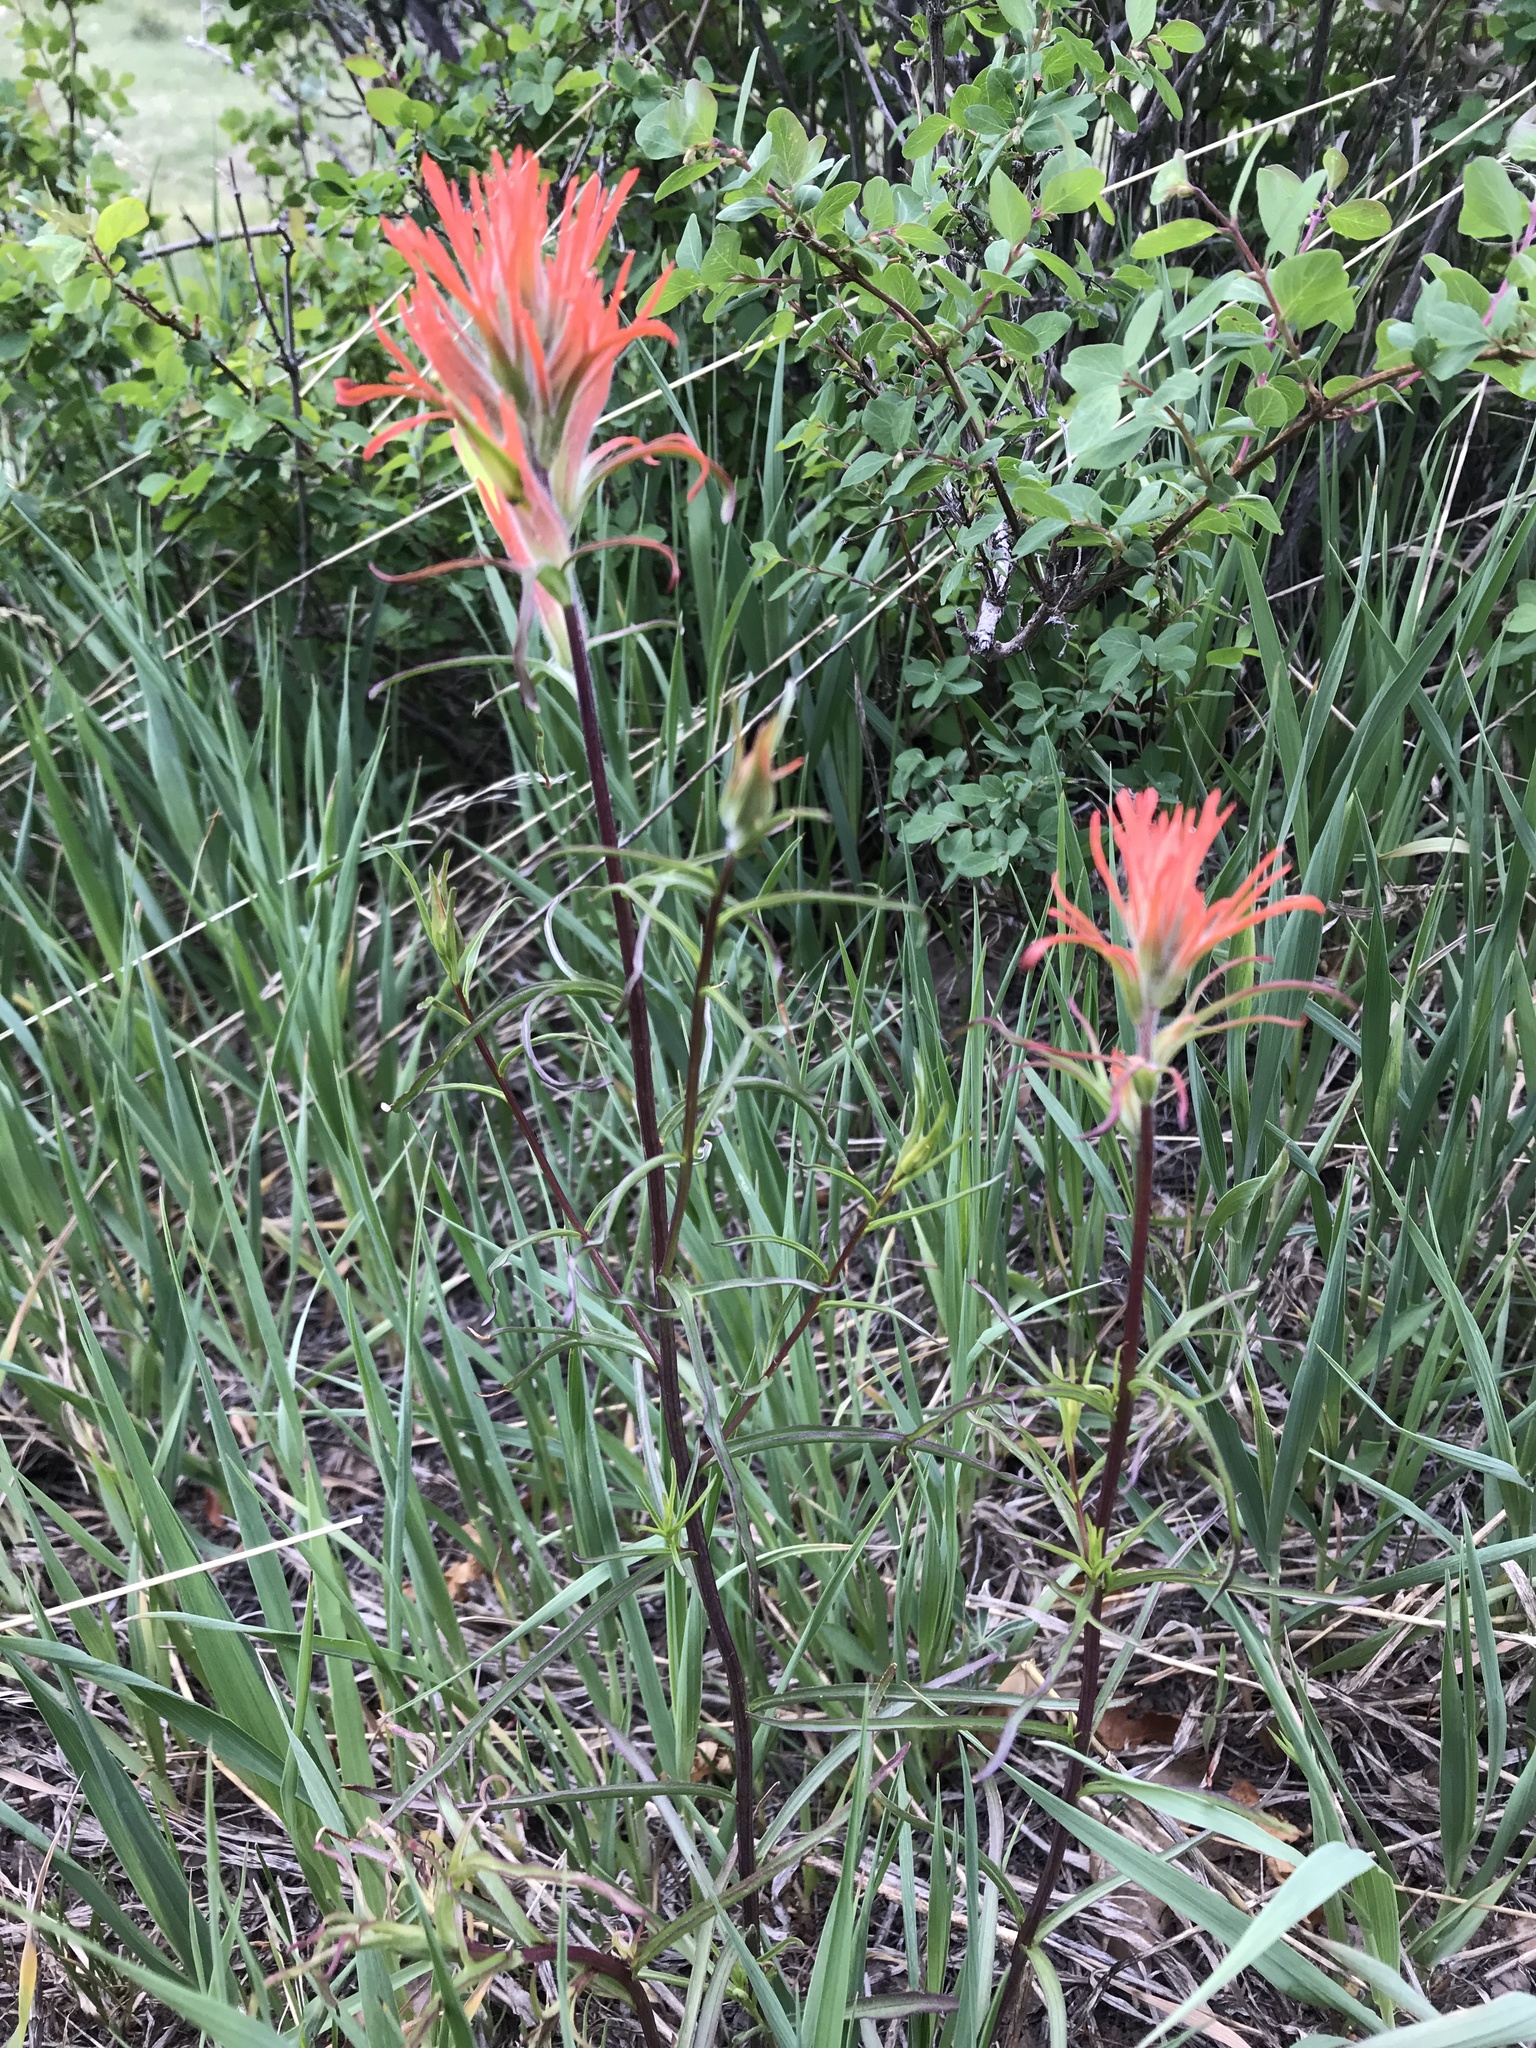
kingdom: Plantae
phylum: Tracheophyta
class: Magnoliopsida
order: Lamiales
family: Orobanchaceae
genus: Castilleja
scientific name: Castilleja linariifolia
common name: Wyoming paintbrush
